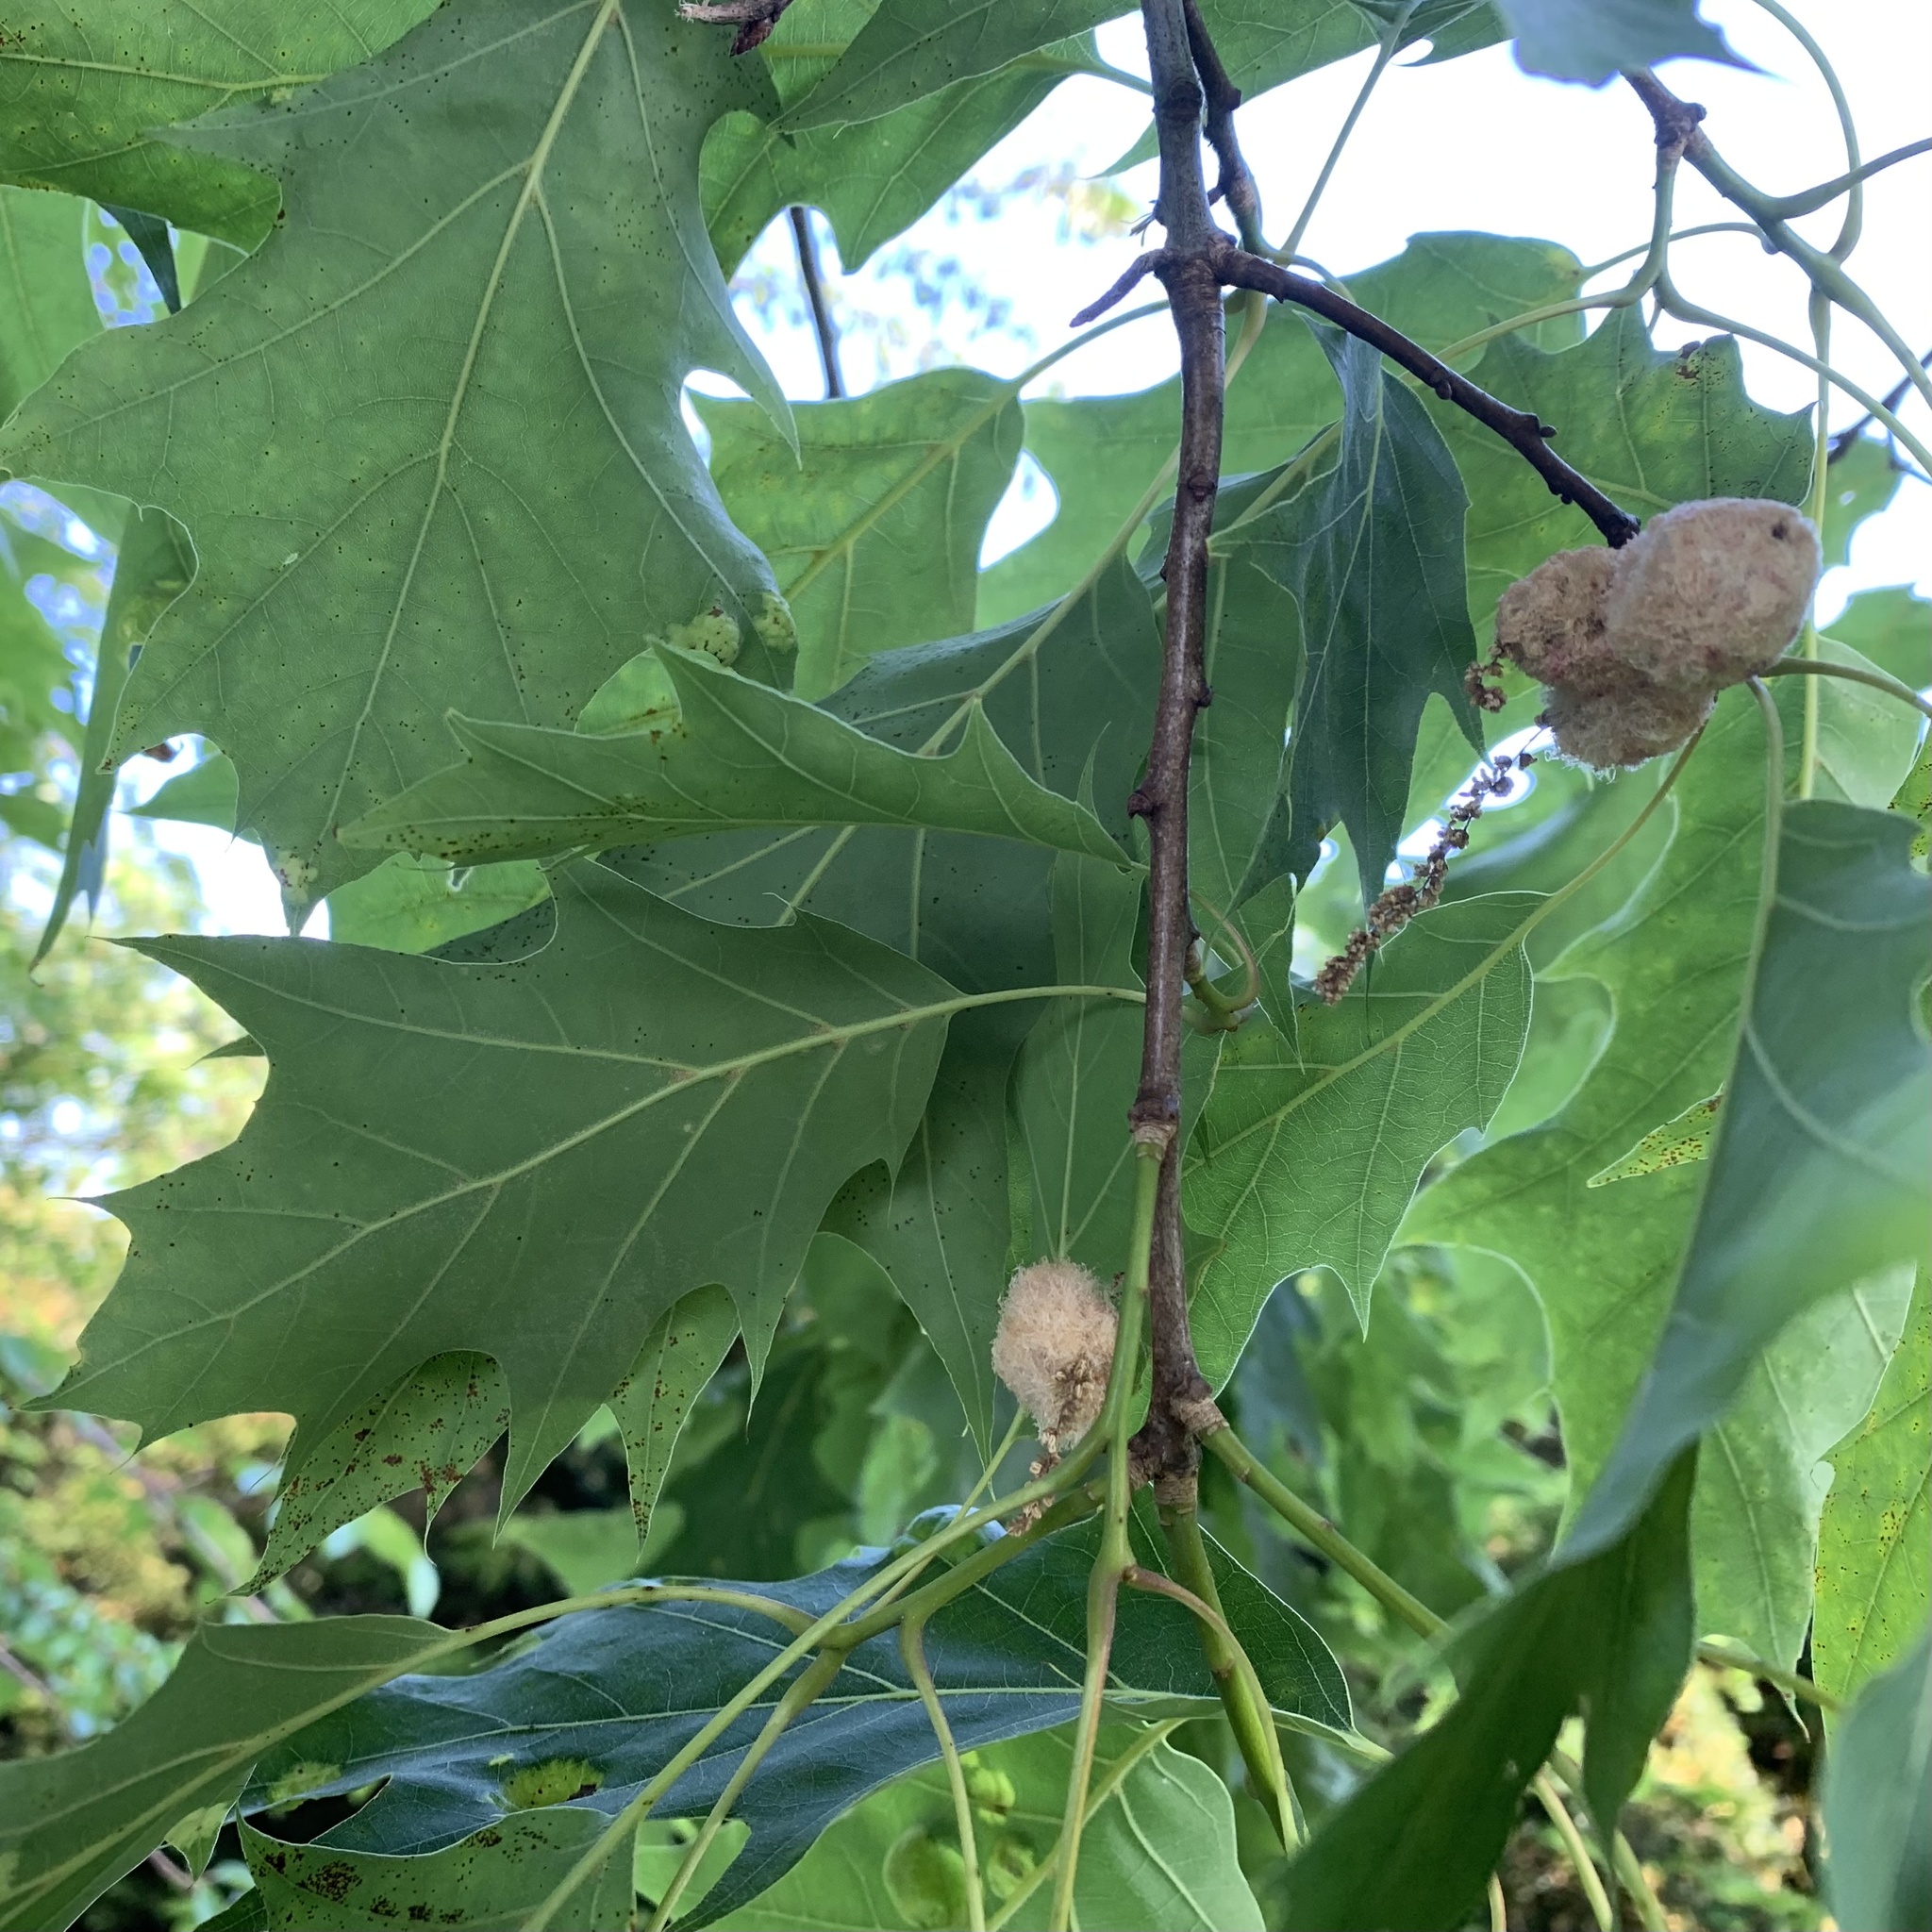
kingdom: Animalia
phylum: Arthropoda
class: Insecta
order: Hymenoptera
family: Cynipidae
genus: Callirhytis
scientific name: Callirhytis
